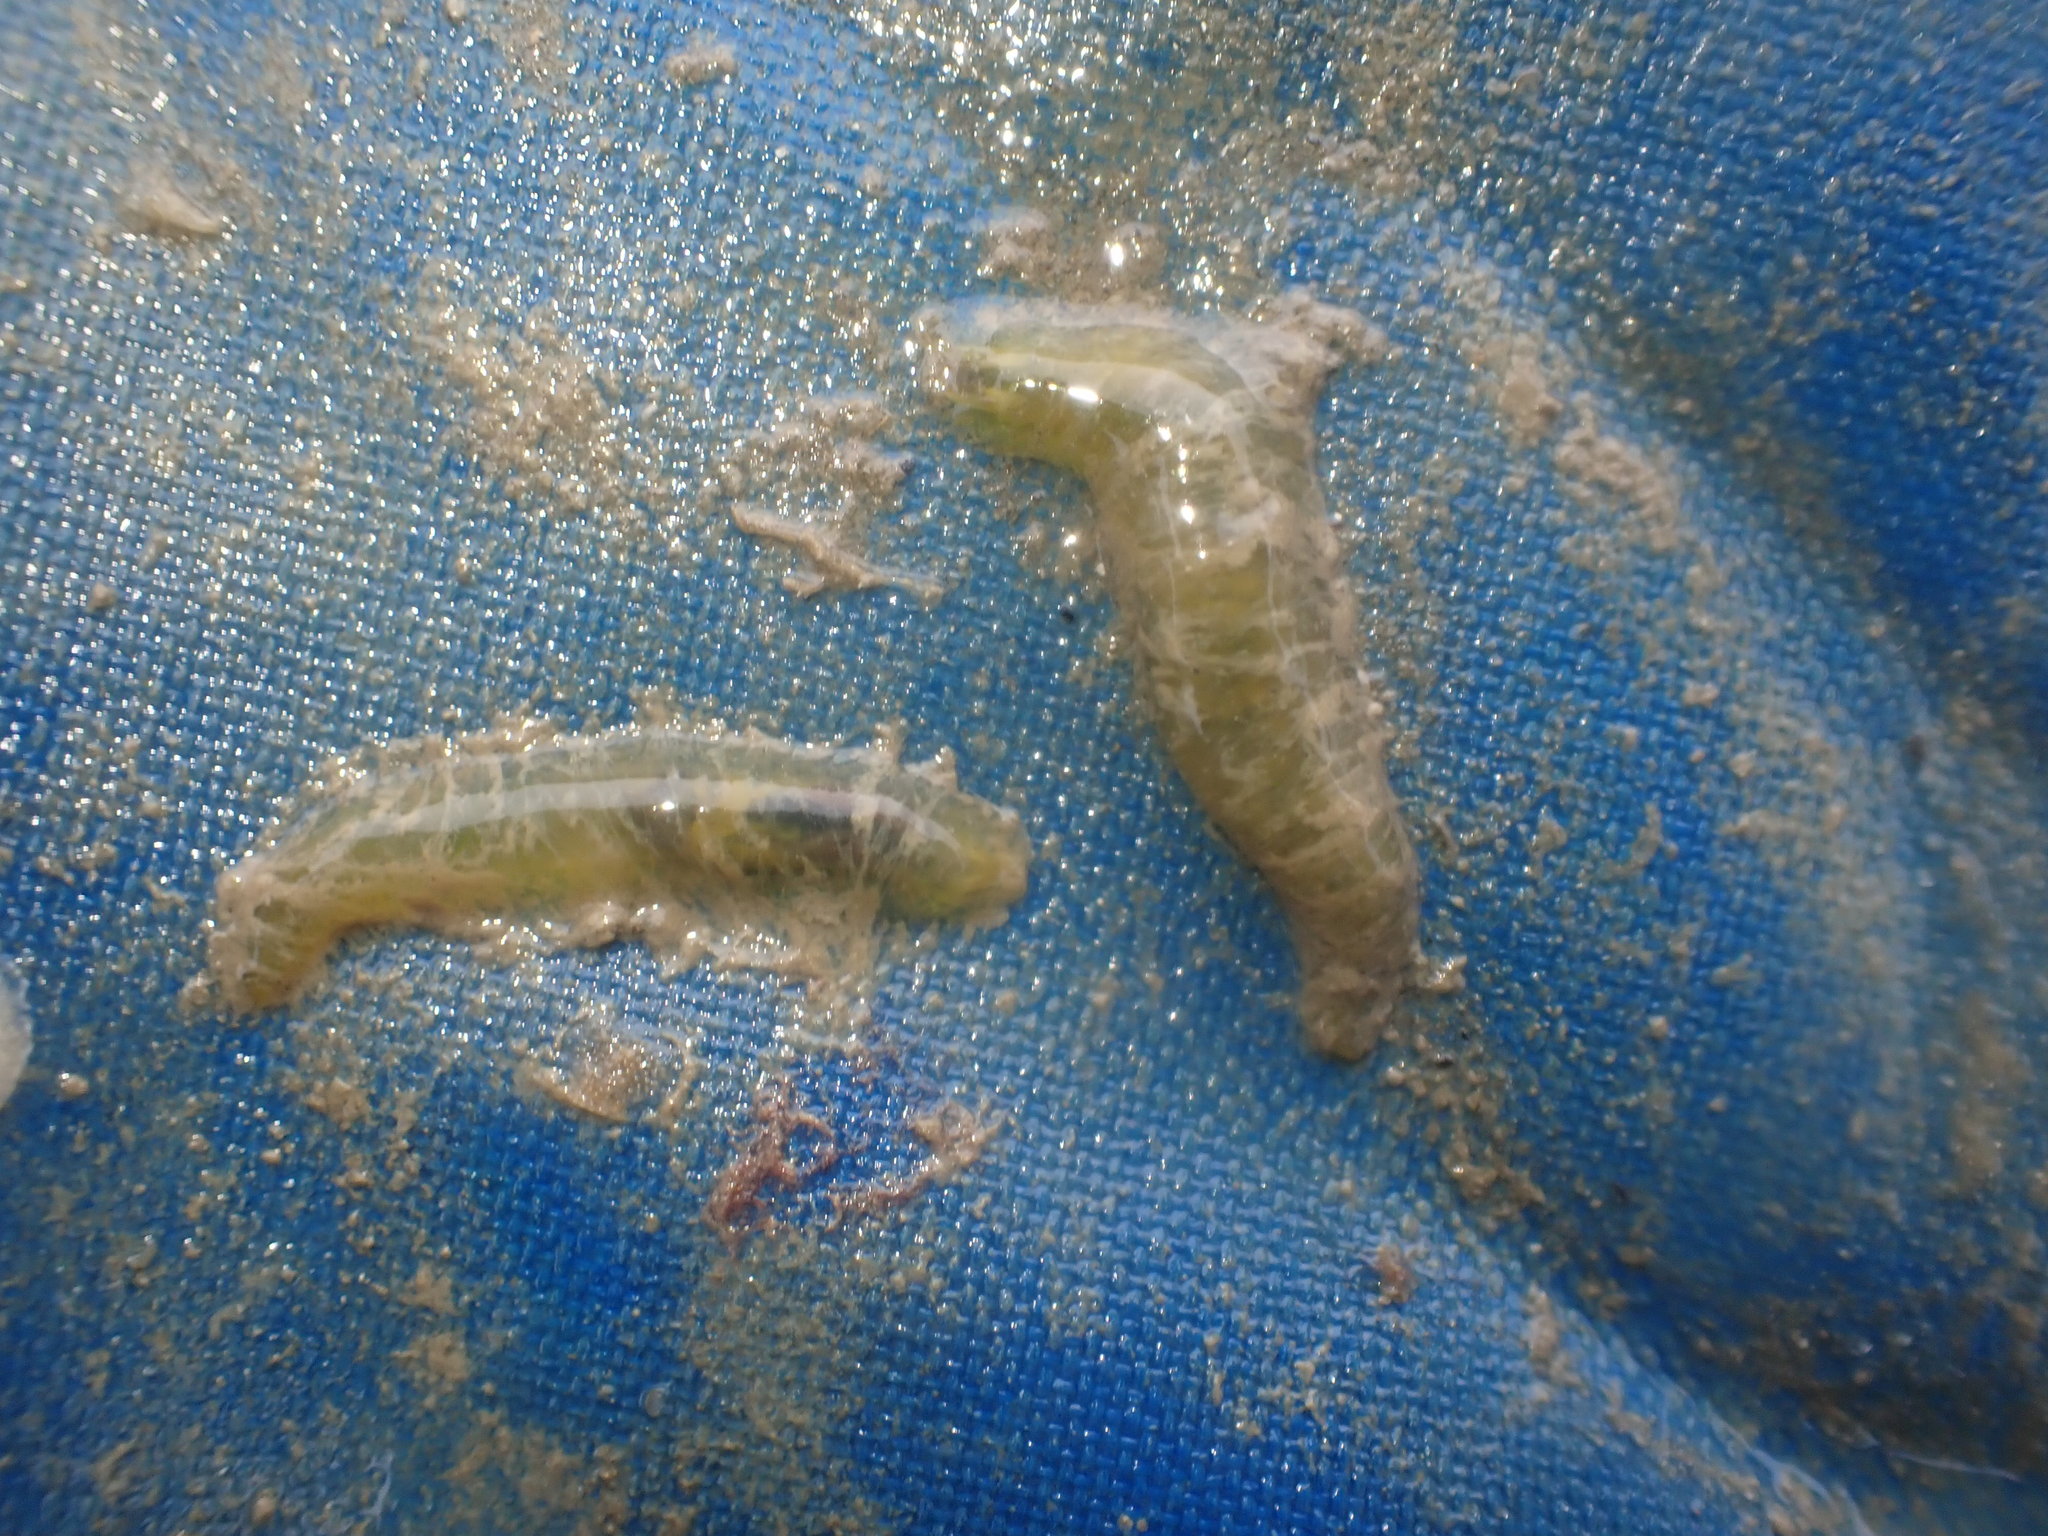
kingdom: Animalia
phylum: Annelida
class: Polychaeta
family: Flabelligeridae
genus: Flabelligera
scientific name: Flabelligera bicolor
